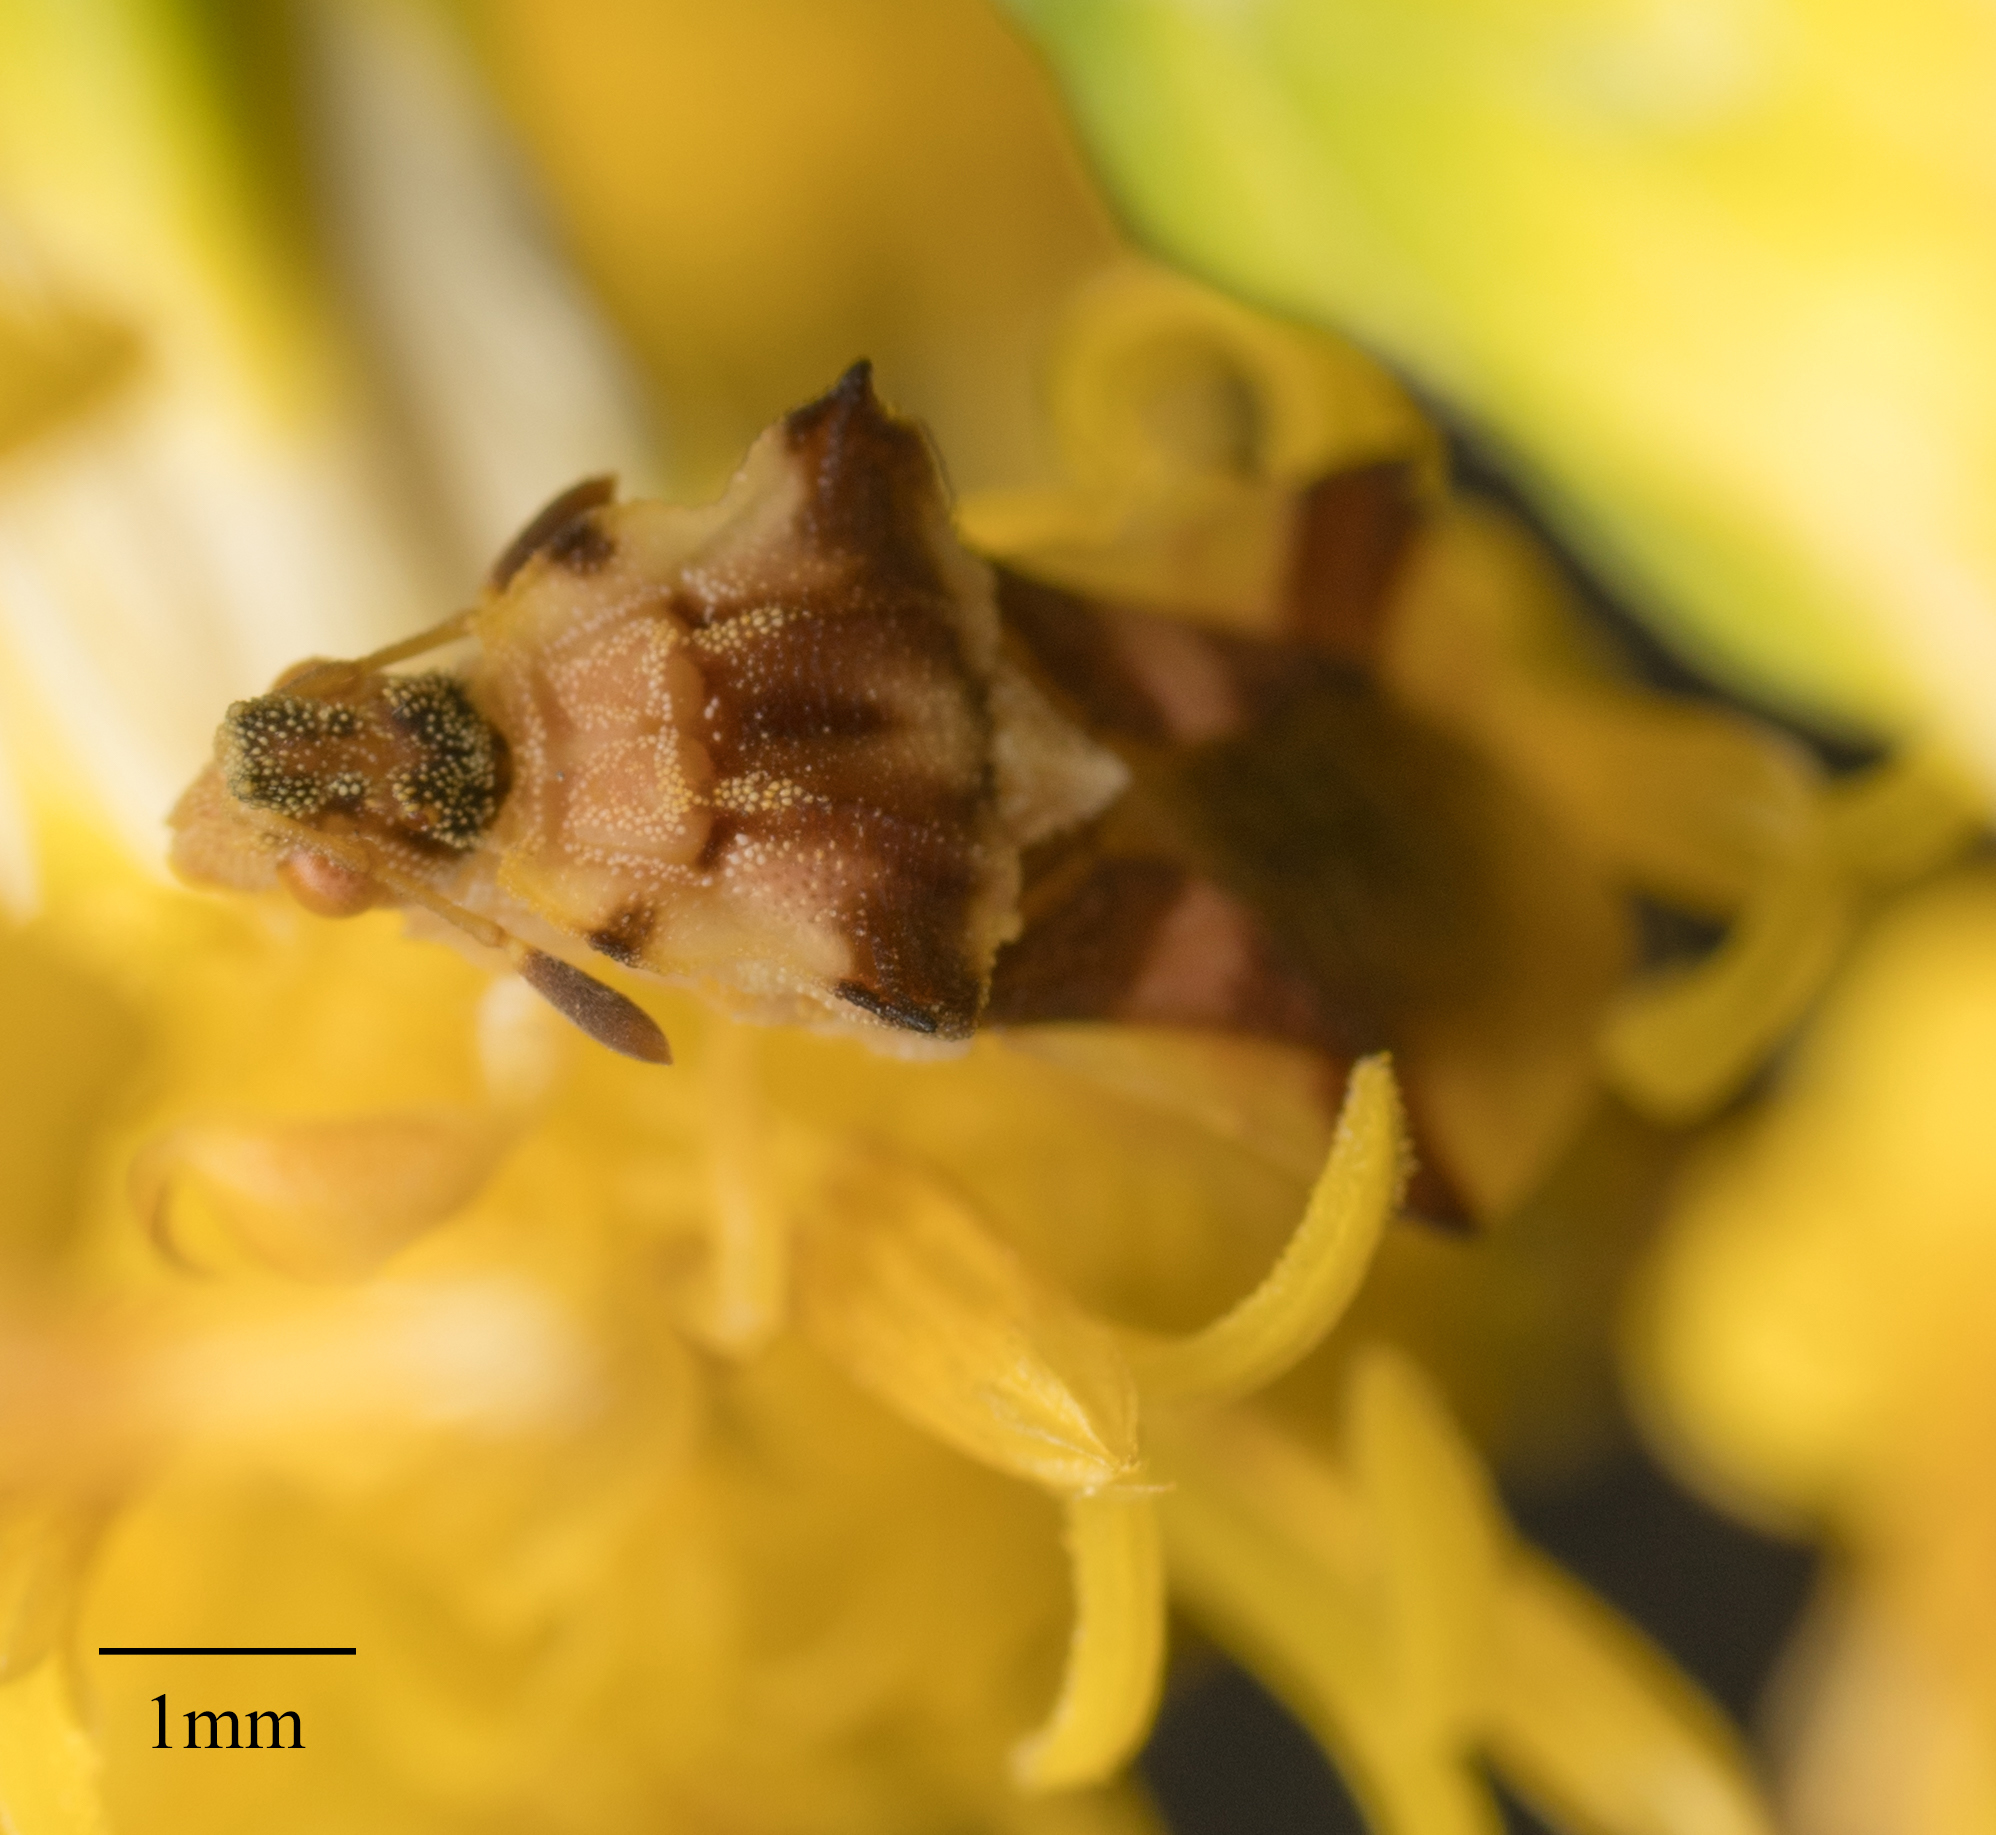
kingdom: Animalia
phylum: Arthropoda
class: Insecta
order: Hemiptera
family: Reduviidae
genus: Phymata
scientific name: Phymata pacifica
